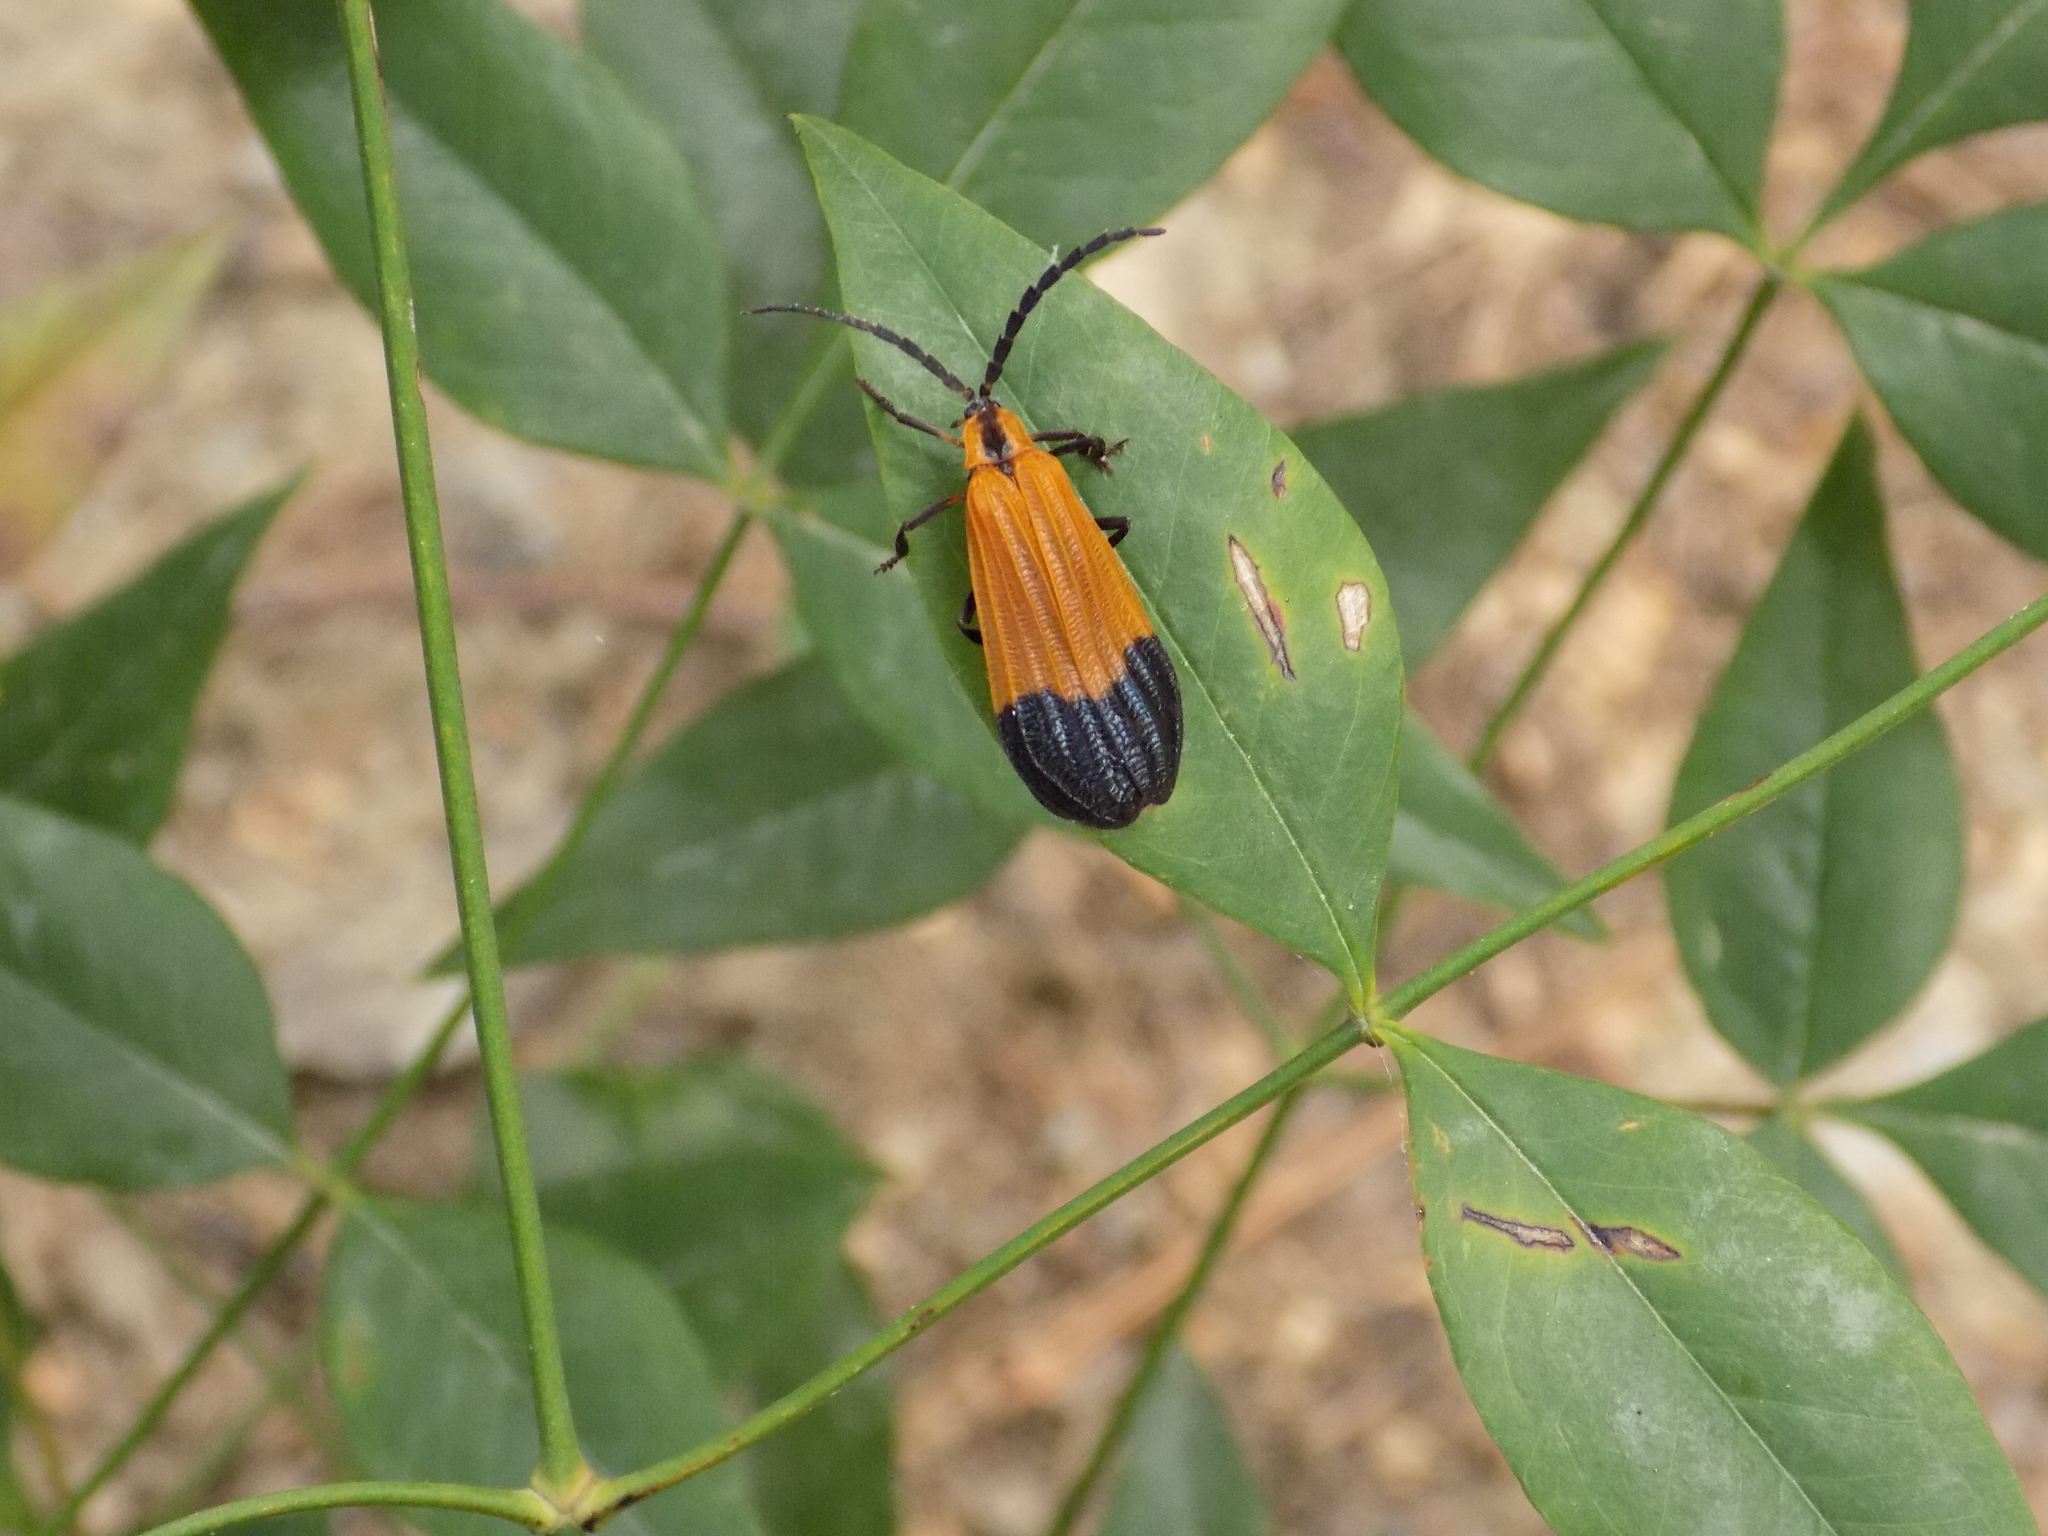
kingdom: Animalia
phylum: Arthropoda
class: Insecta
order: Coleoptera
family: Lycidae
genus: Calopteron
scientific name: Calopteron terminale
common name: End band net-winged beetle
